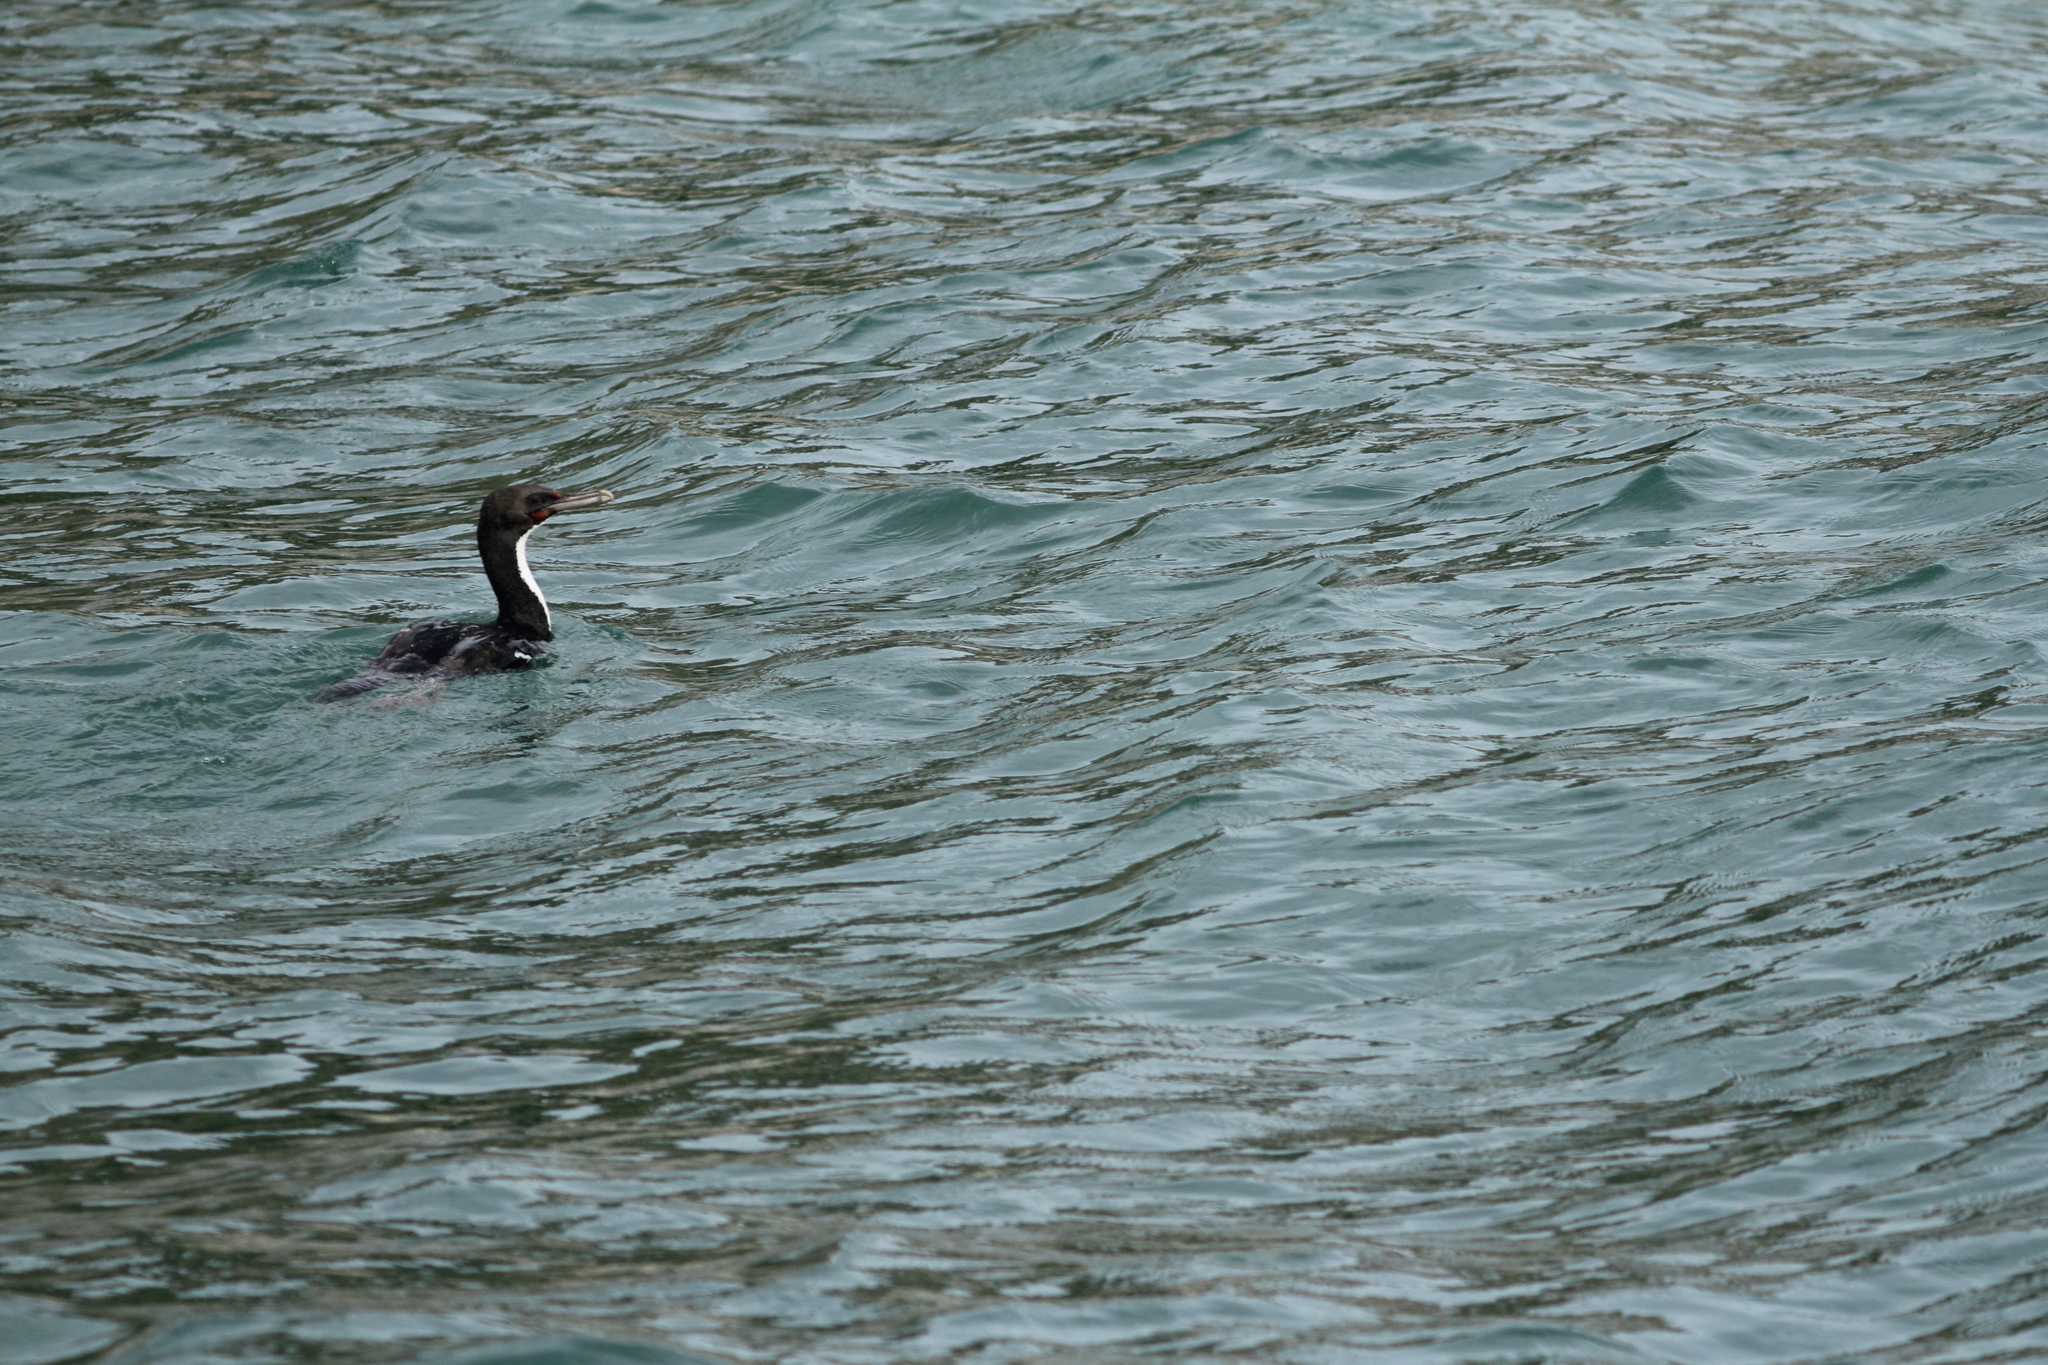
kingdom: Animalia
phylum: Chordata
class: Aves
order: Suliformes
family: Phalacrocoracidae
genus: Leucocarbo
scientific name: Leucocarbo chalconotus
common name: Stewart shag
